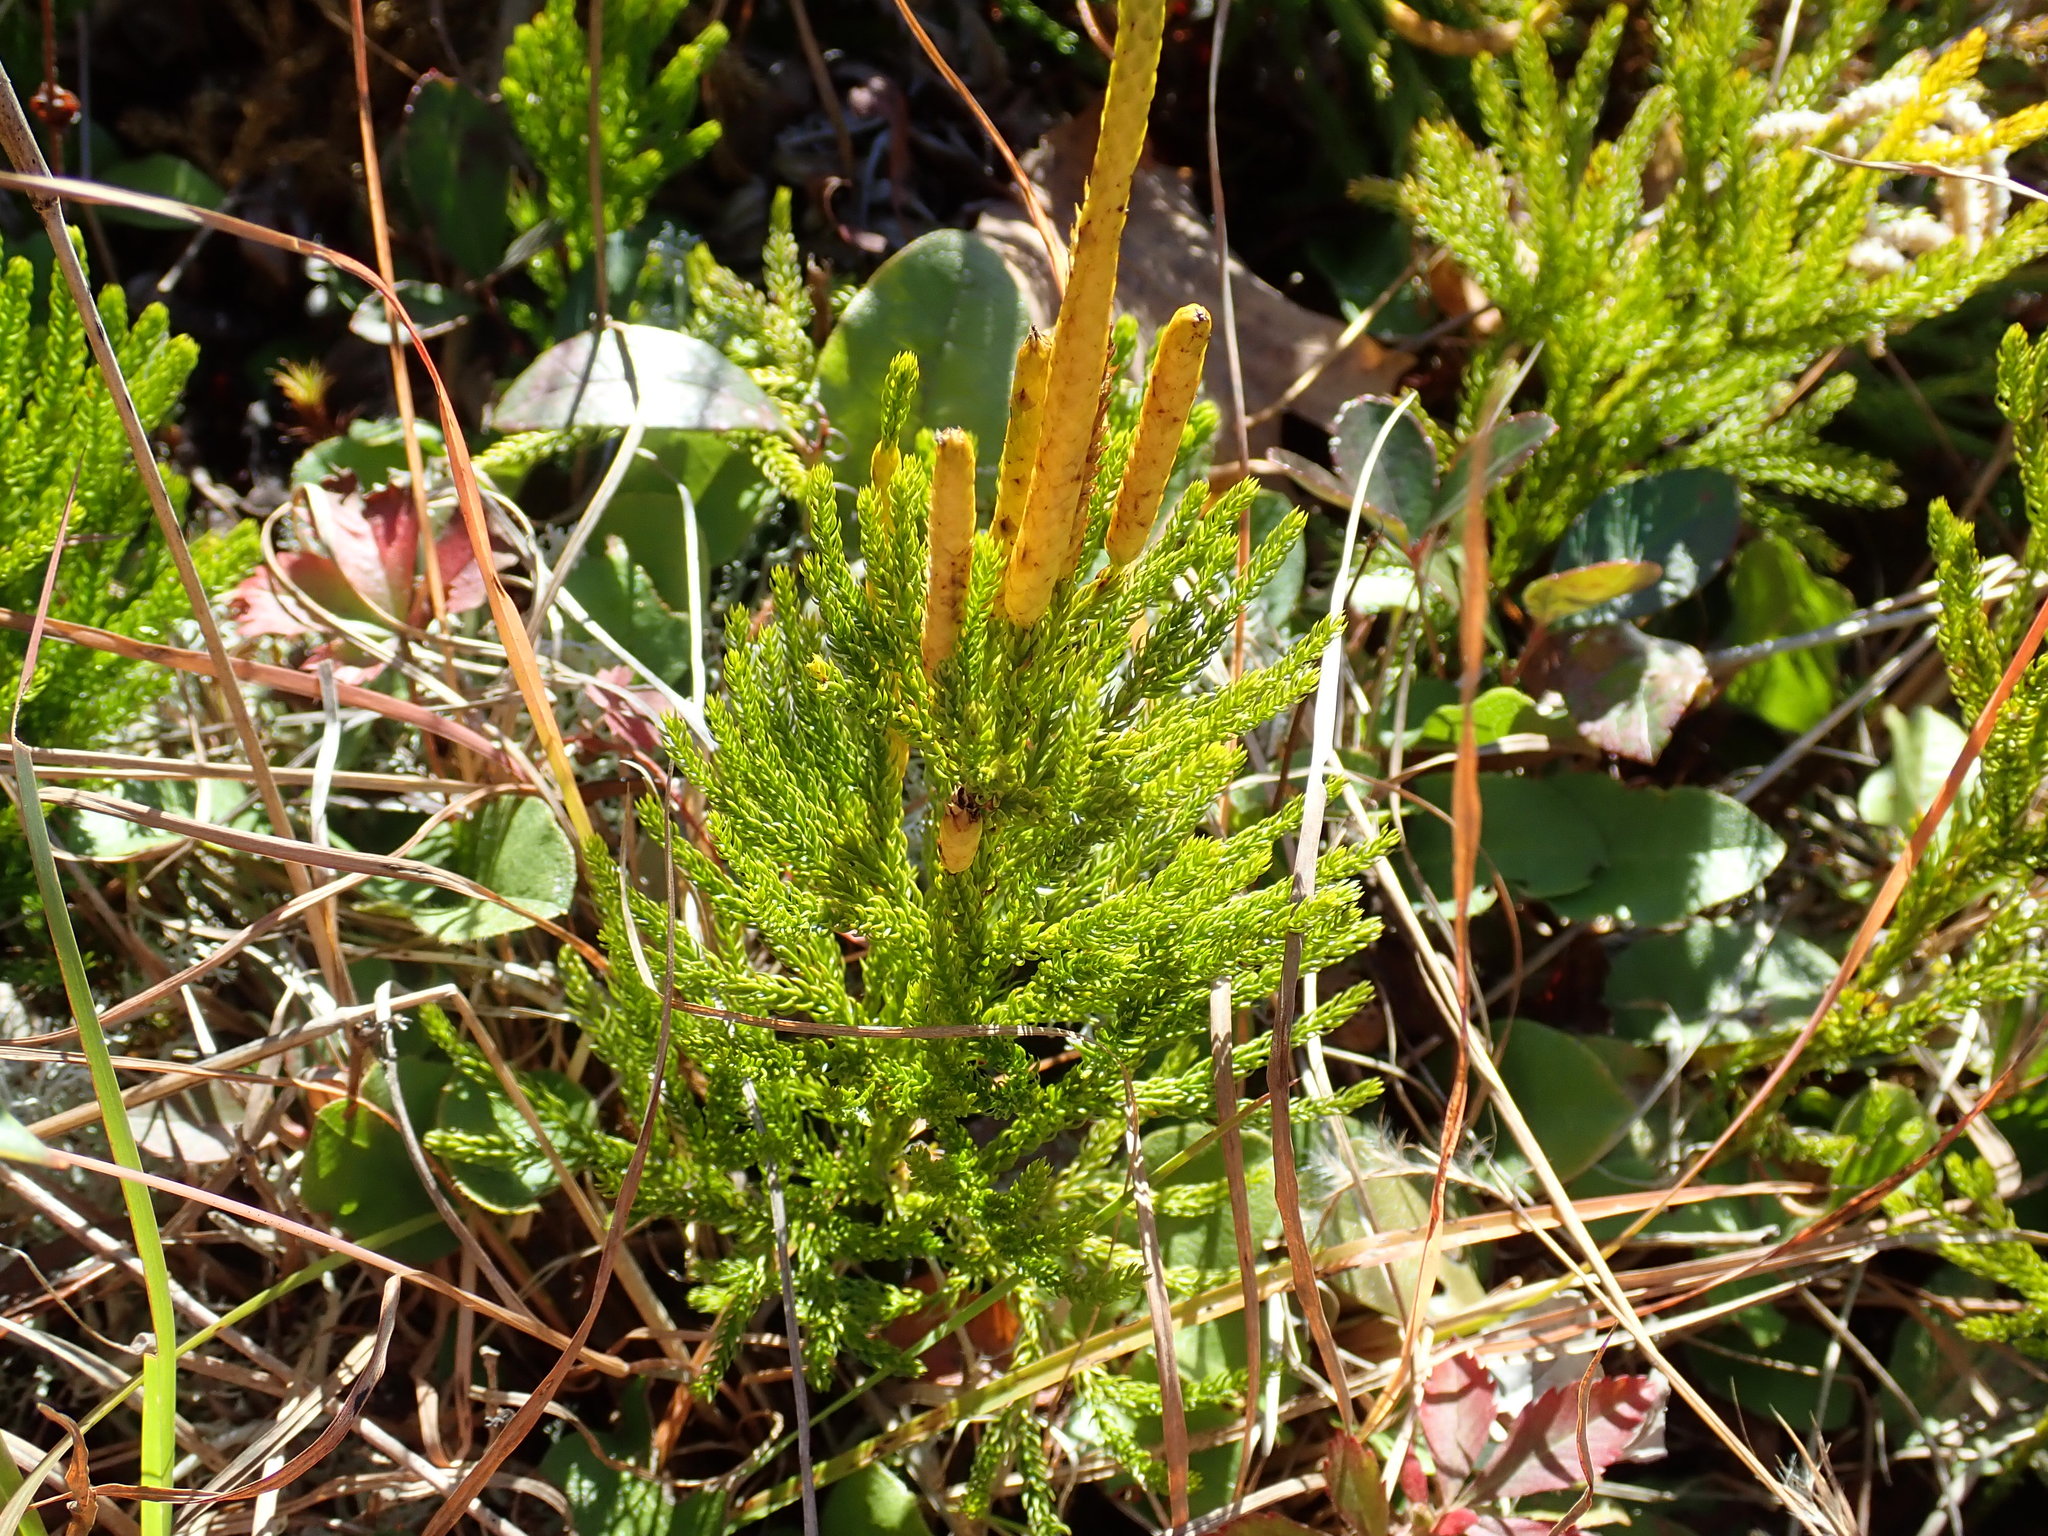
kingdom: Plantae
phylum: Tracheophyta
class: Lycopodiopsida
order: Lycopodiales
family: Lycopodiaceae
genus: Dendrolycopodium
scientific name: Dendrolycopodium hickeyi
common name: Hickey's clubmoss
